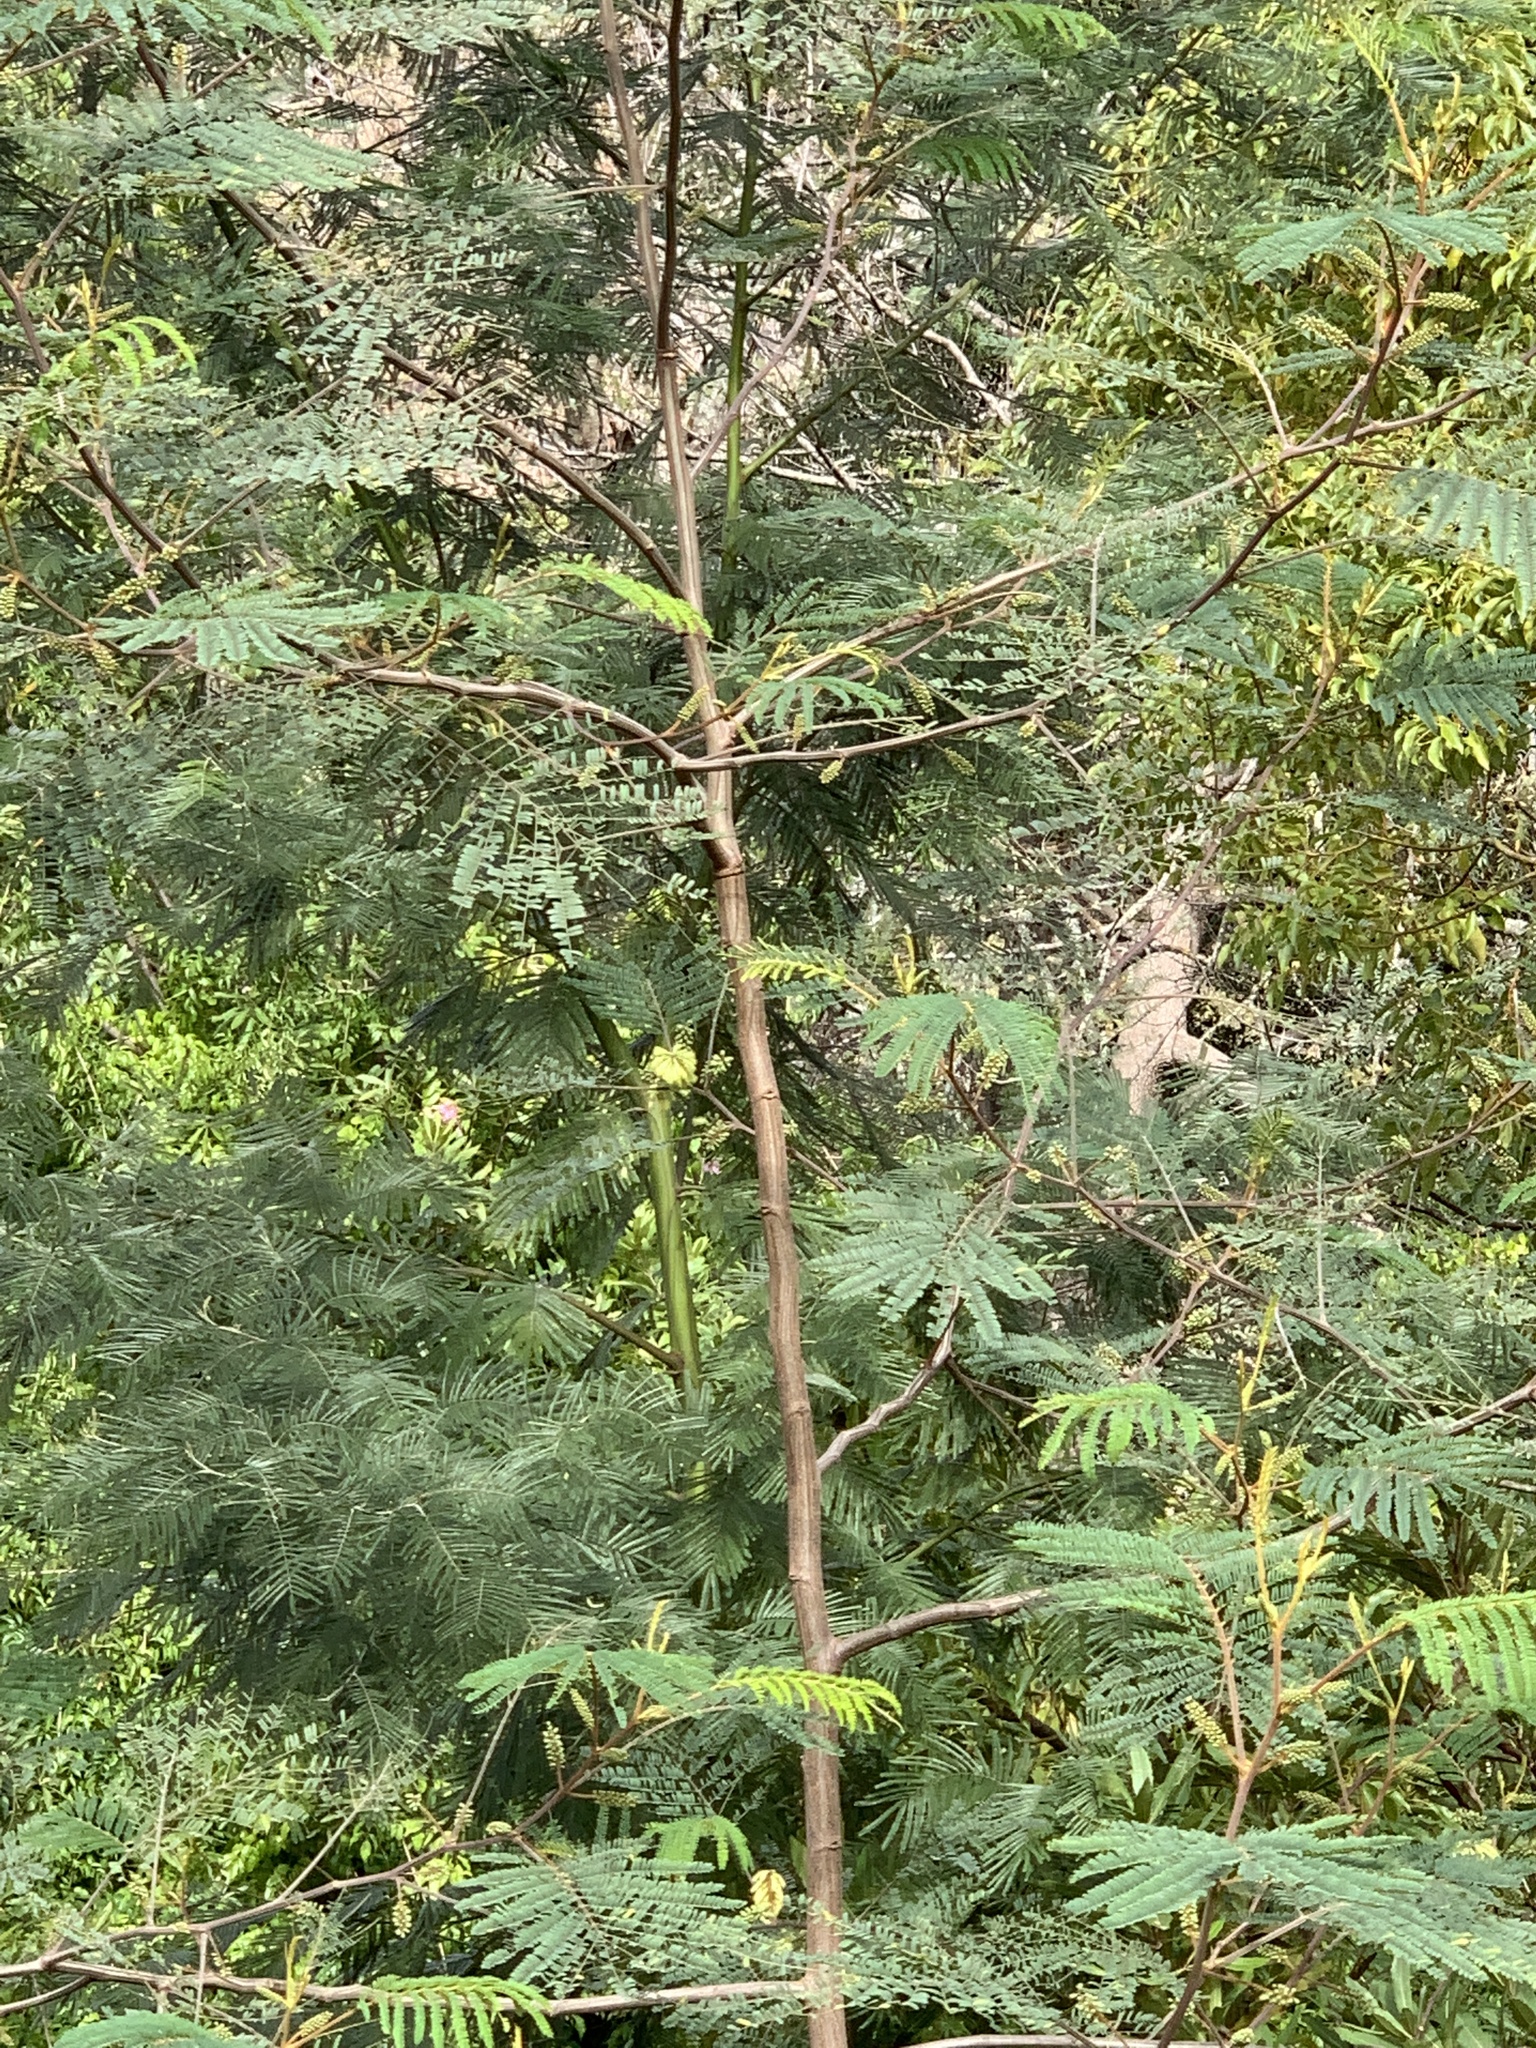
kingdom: Plantae
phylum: Tracheophyta
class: Magnoliopsida
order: Fabales
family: Fabaceae
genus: Paraserianthes
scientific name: Paraserianthes lophantha
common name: Plume albizia
